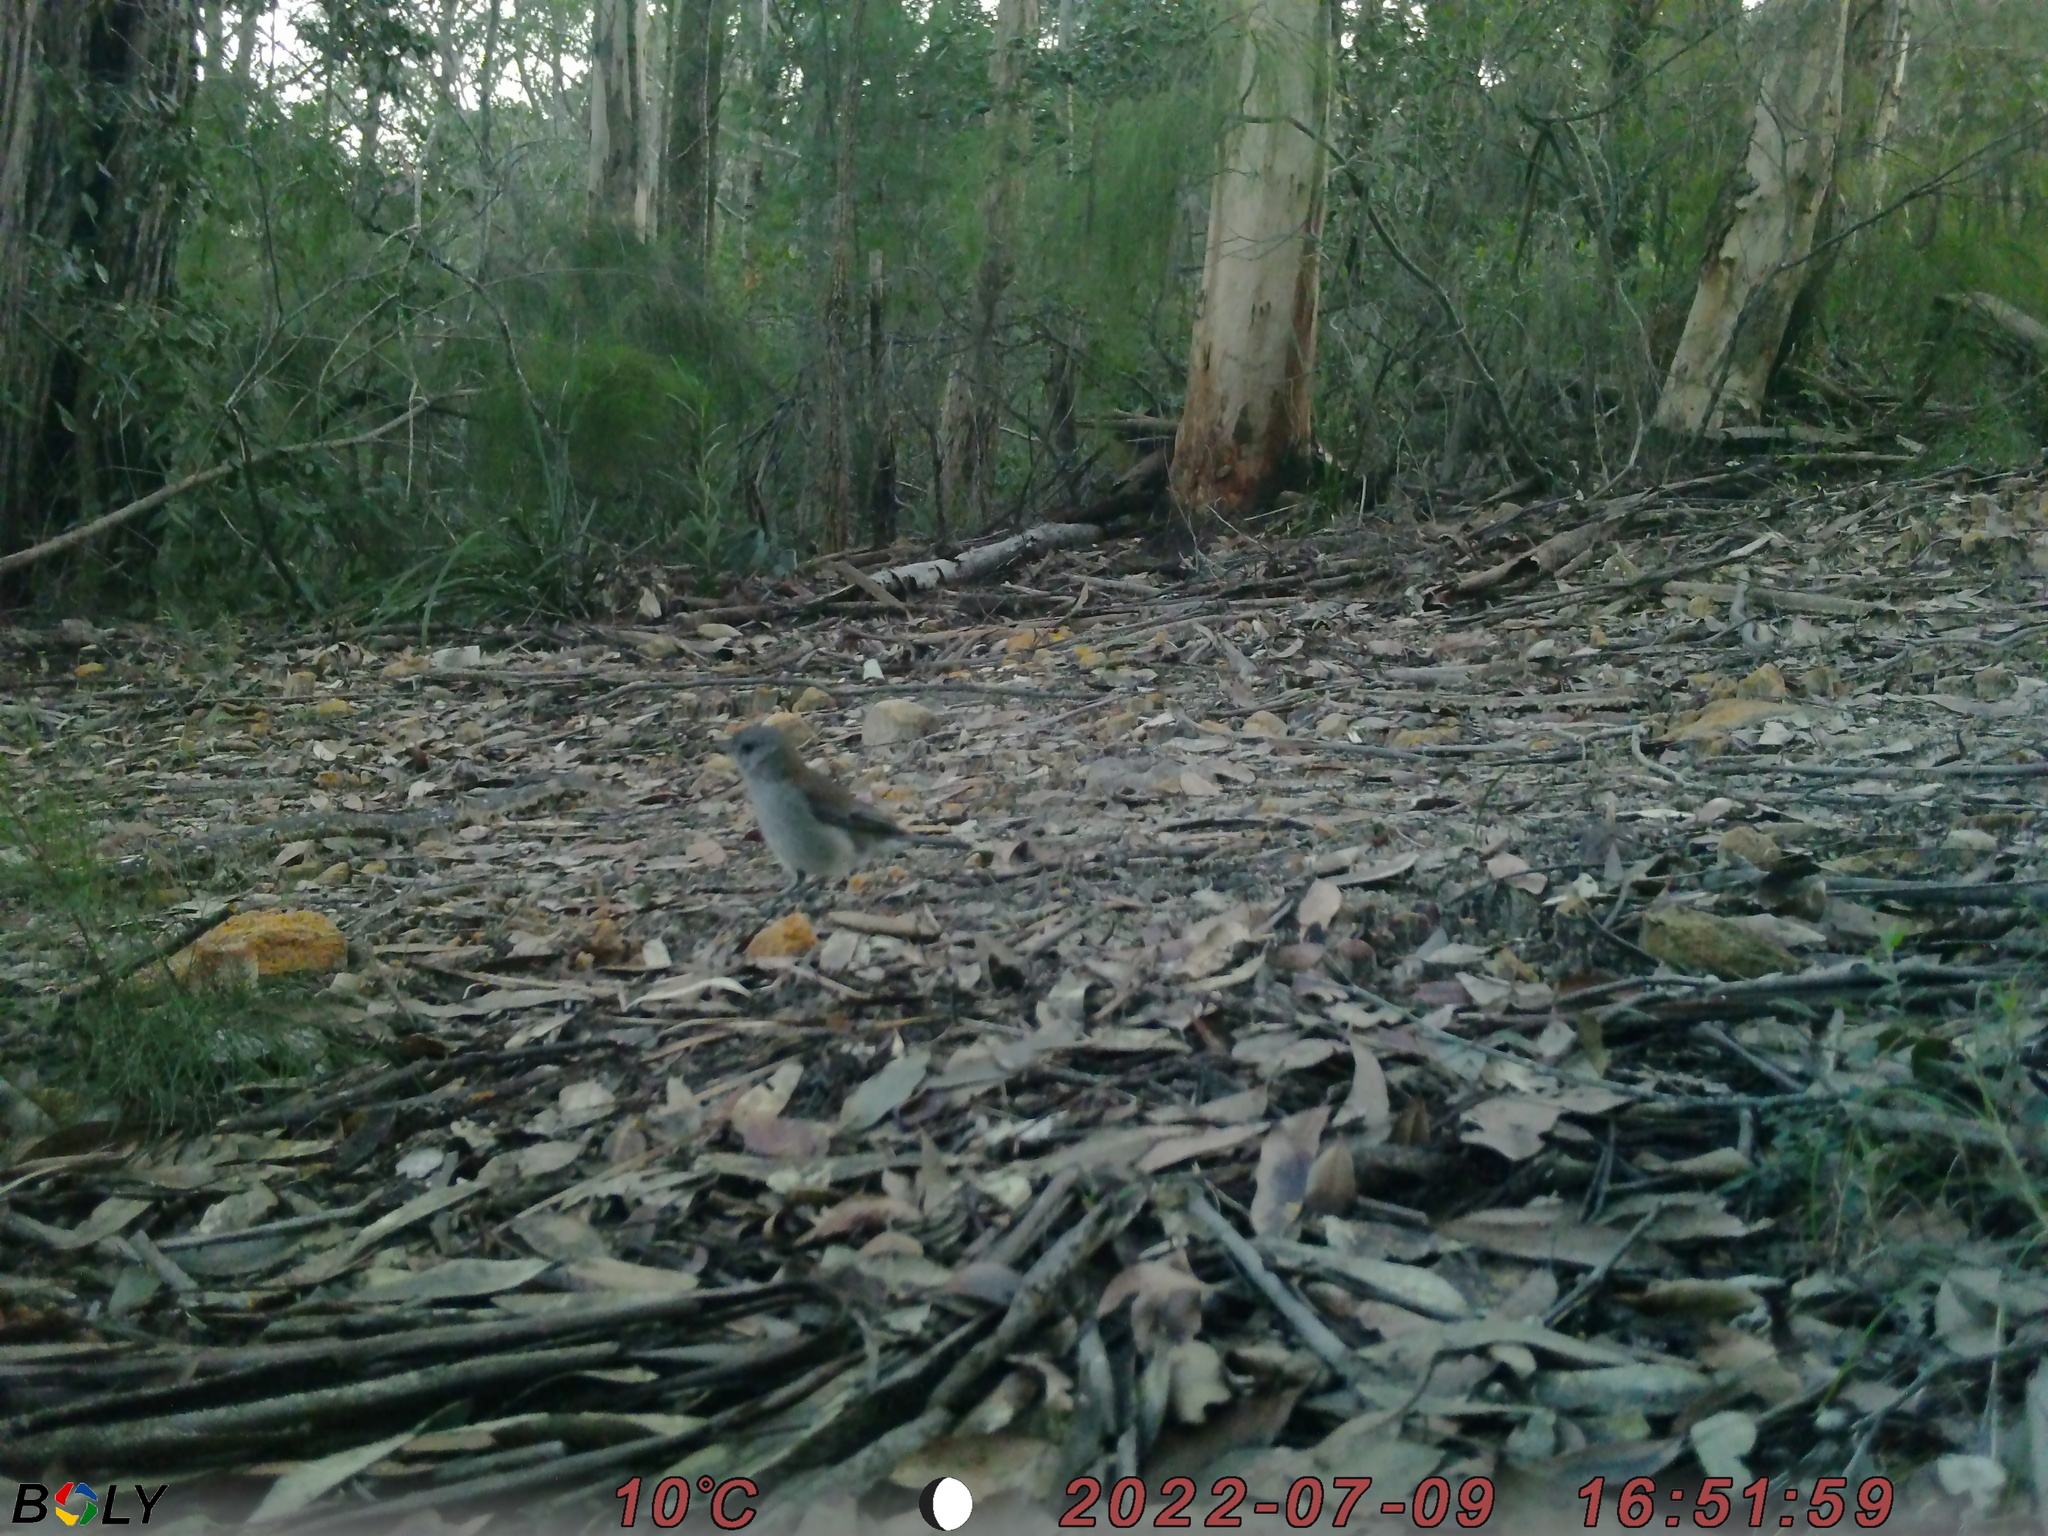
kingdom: Animalia
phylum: Chordata
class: Aves
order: Passeriformes
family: Pachycephalidae
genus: Colluricincla
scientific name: Colluricincla harmonica
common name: Grey shrikethrush
